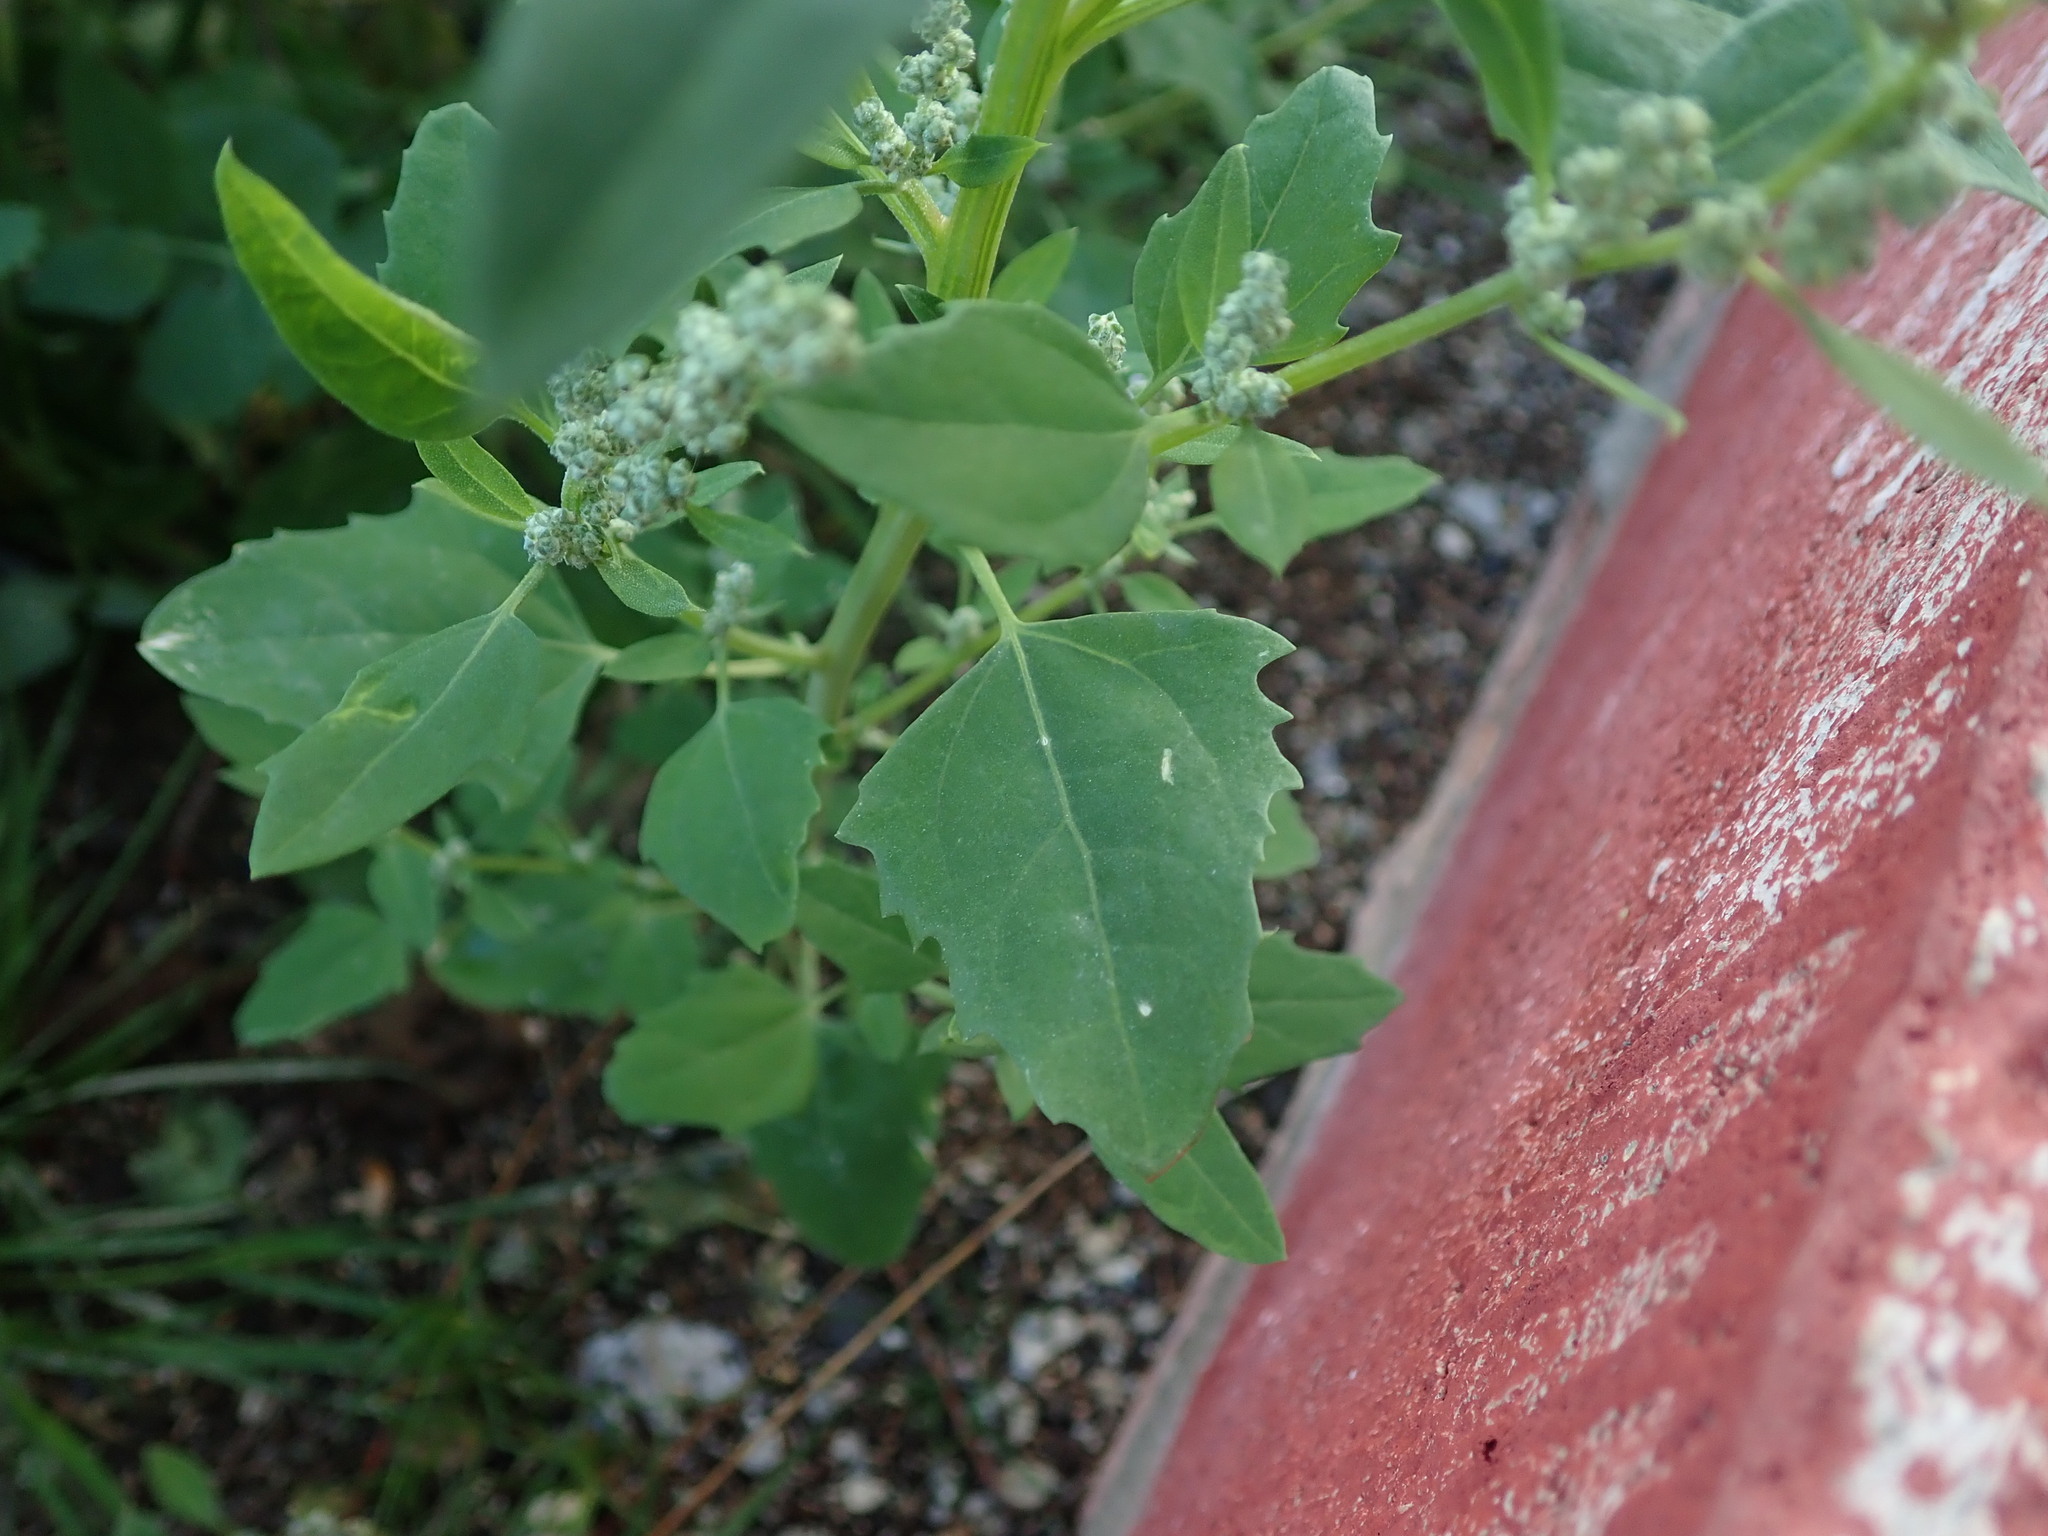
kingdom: Plantae
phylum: Tracheophyta
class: Magnoliopsida
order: Caryophyllales
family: Amaranthaceae
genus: Chenopodium
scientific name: Chenopodium album
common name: Fat-hen
